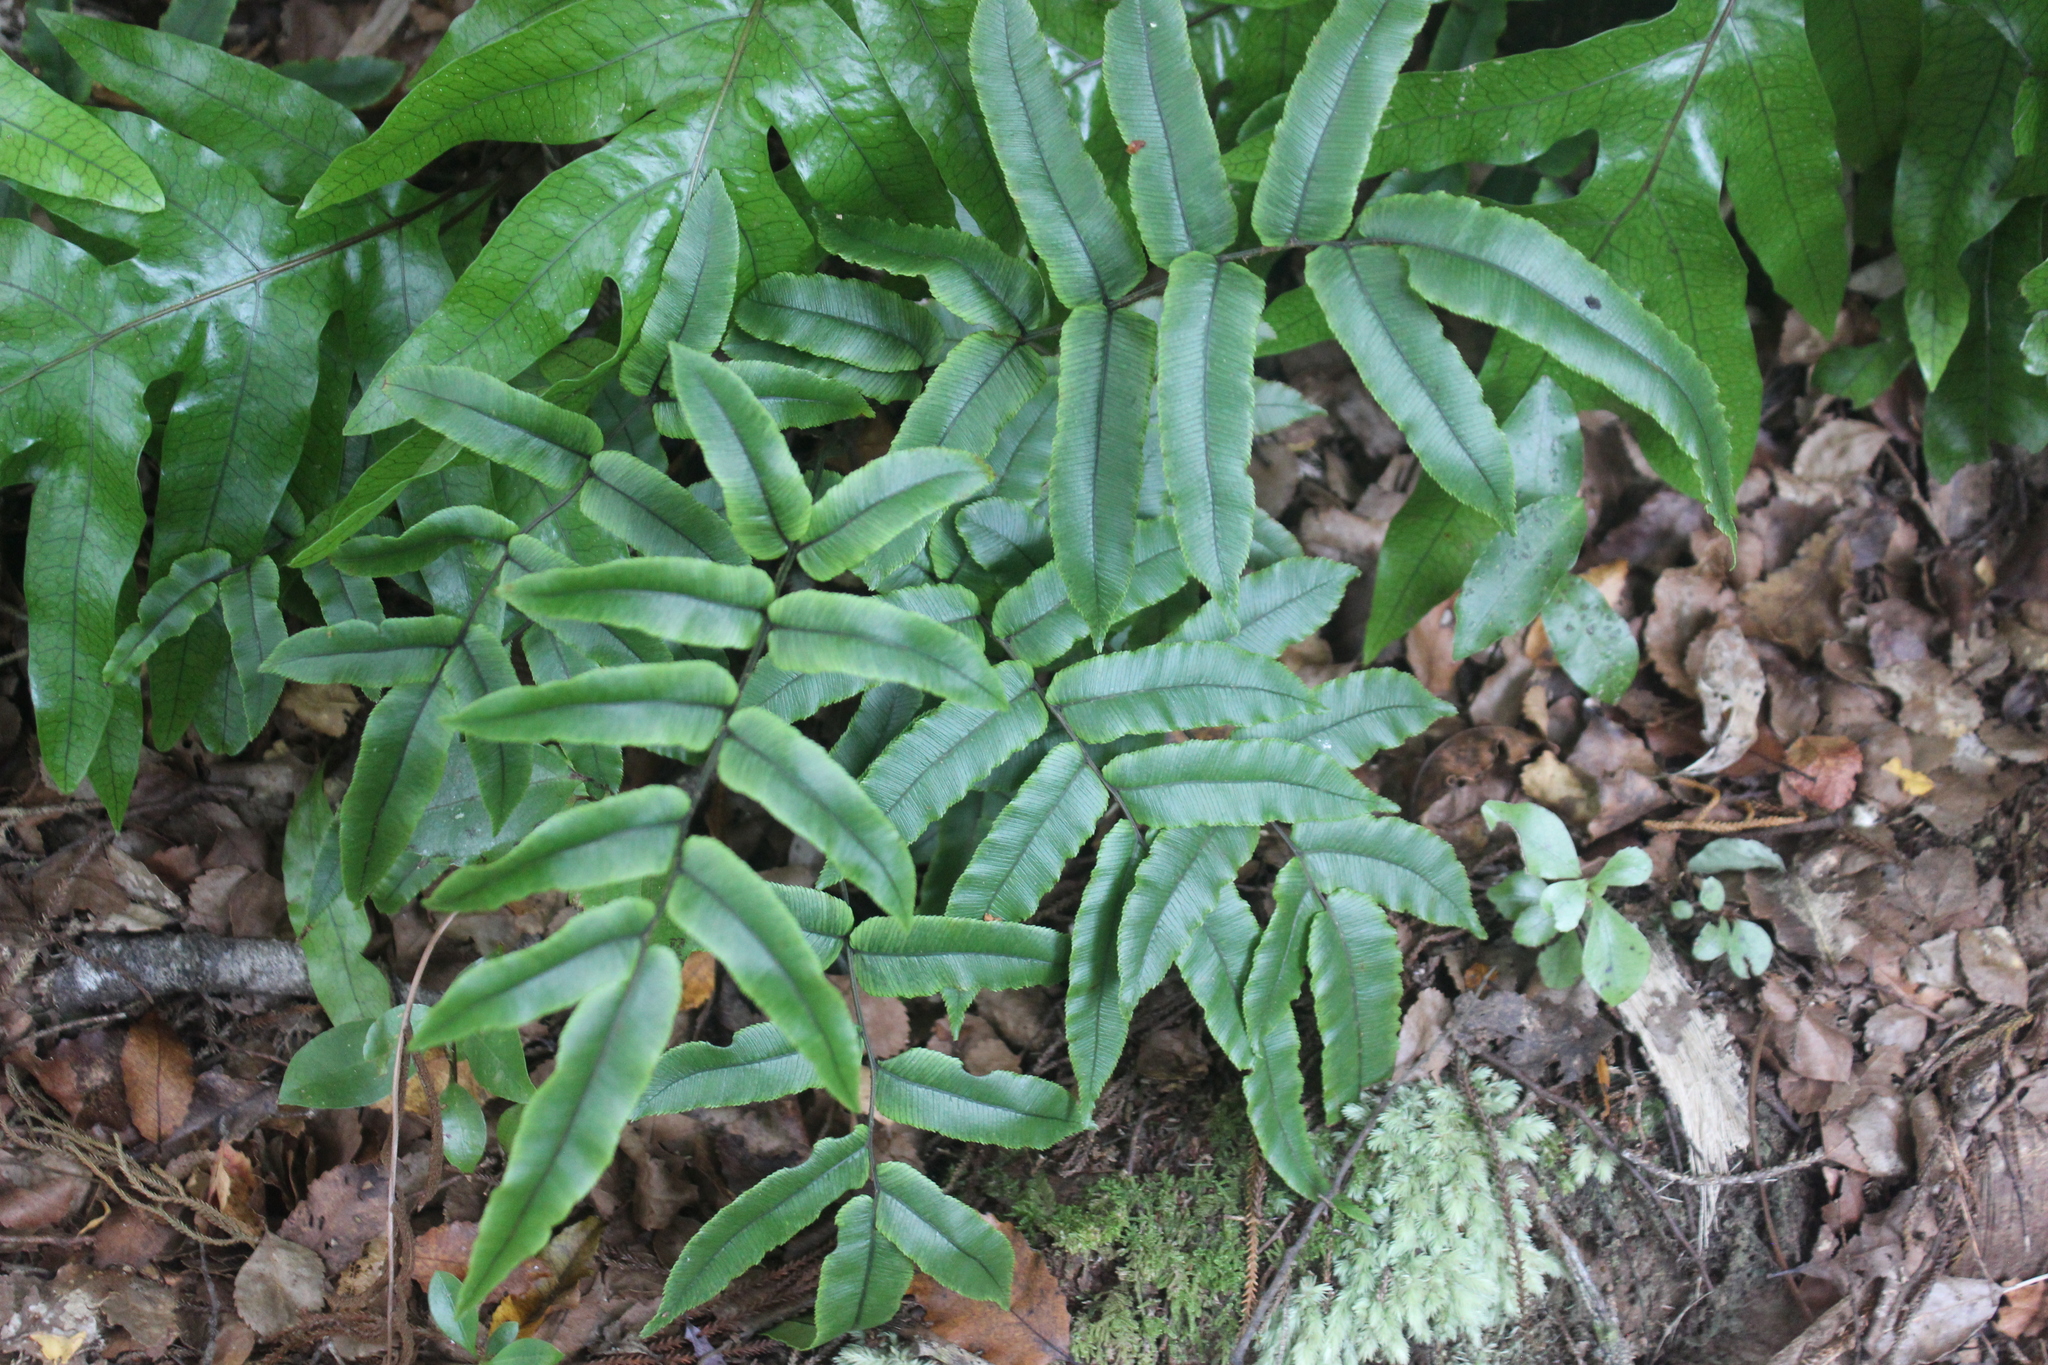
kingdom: Plantae
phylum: Tracheophyta
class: Polypodiopsida
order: Polypodiales
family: Blechnaceae
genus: Parablechnum
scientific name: Parablechnum procerum
